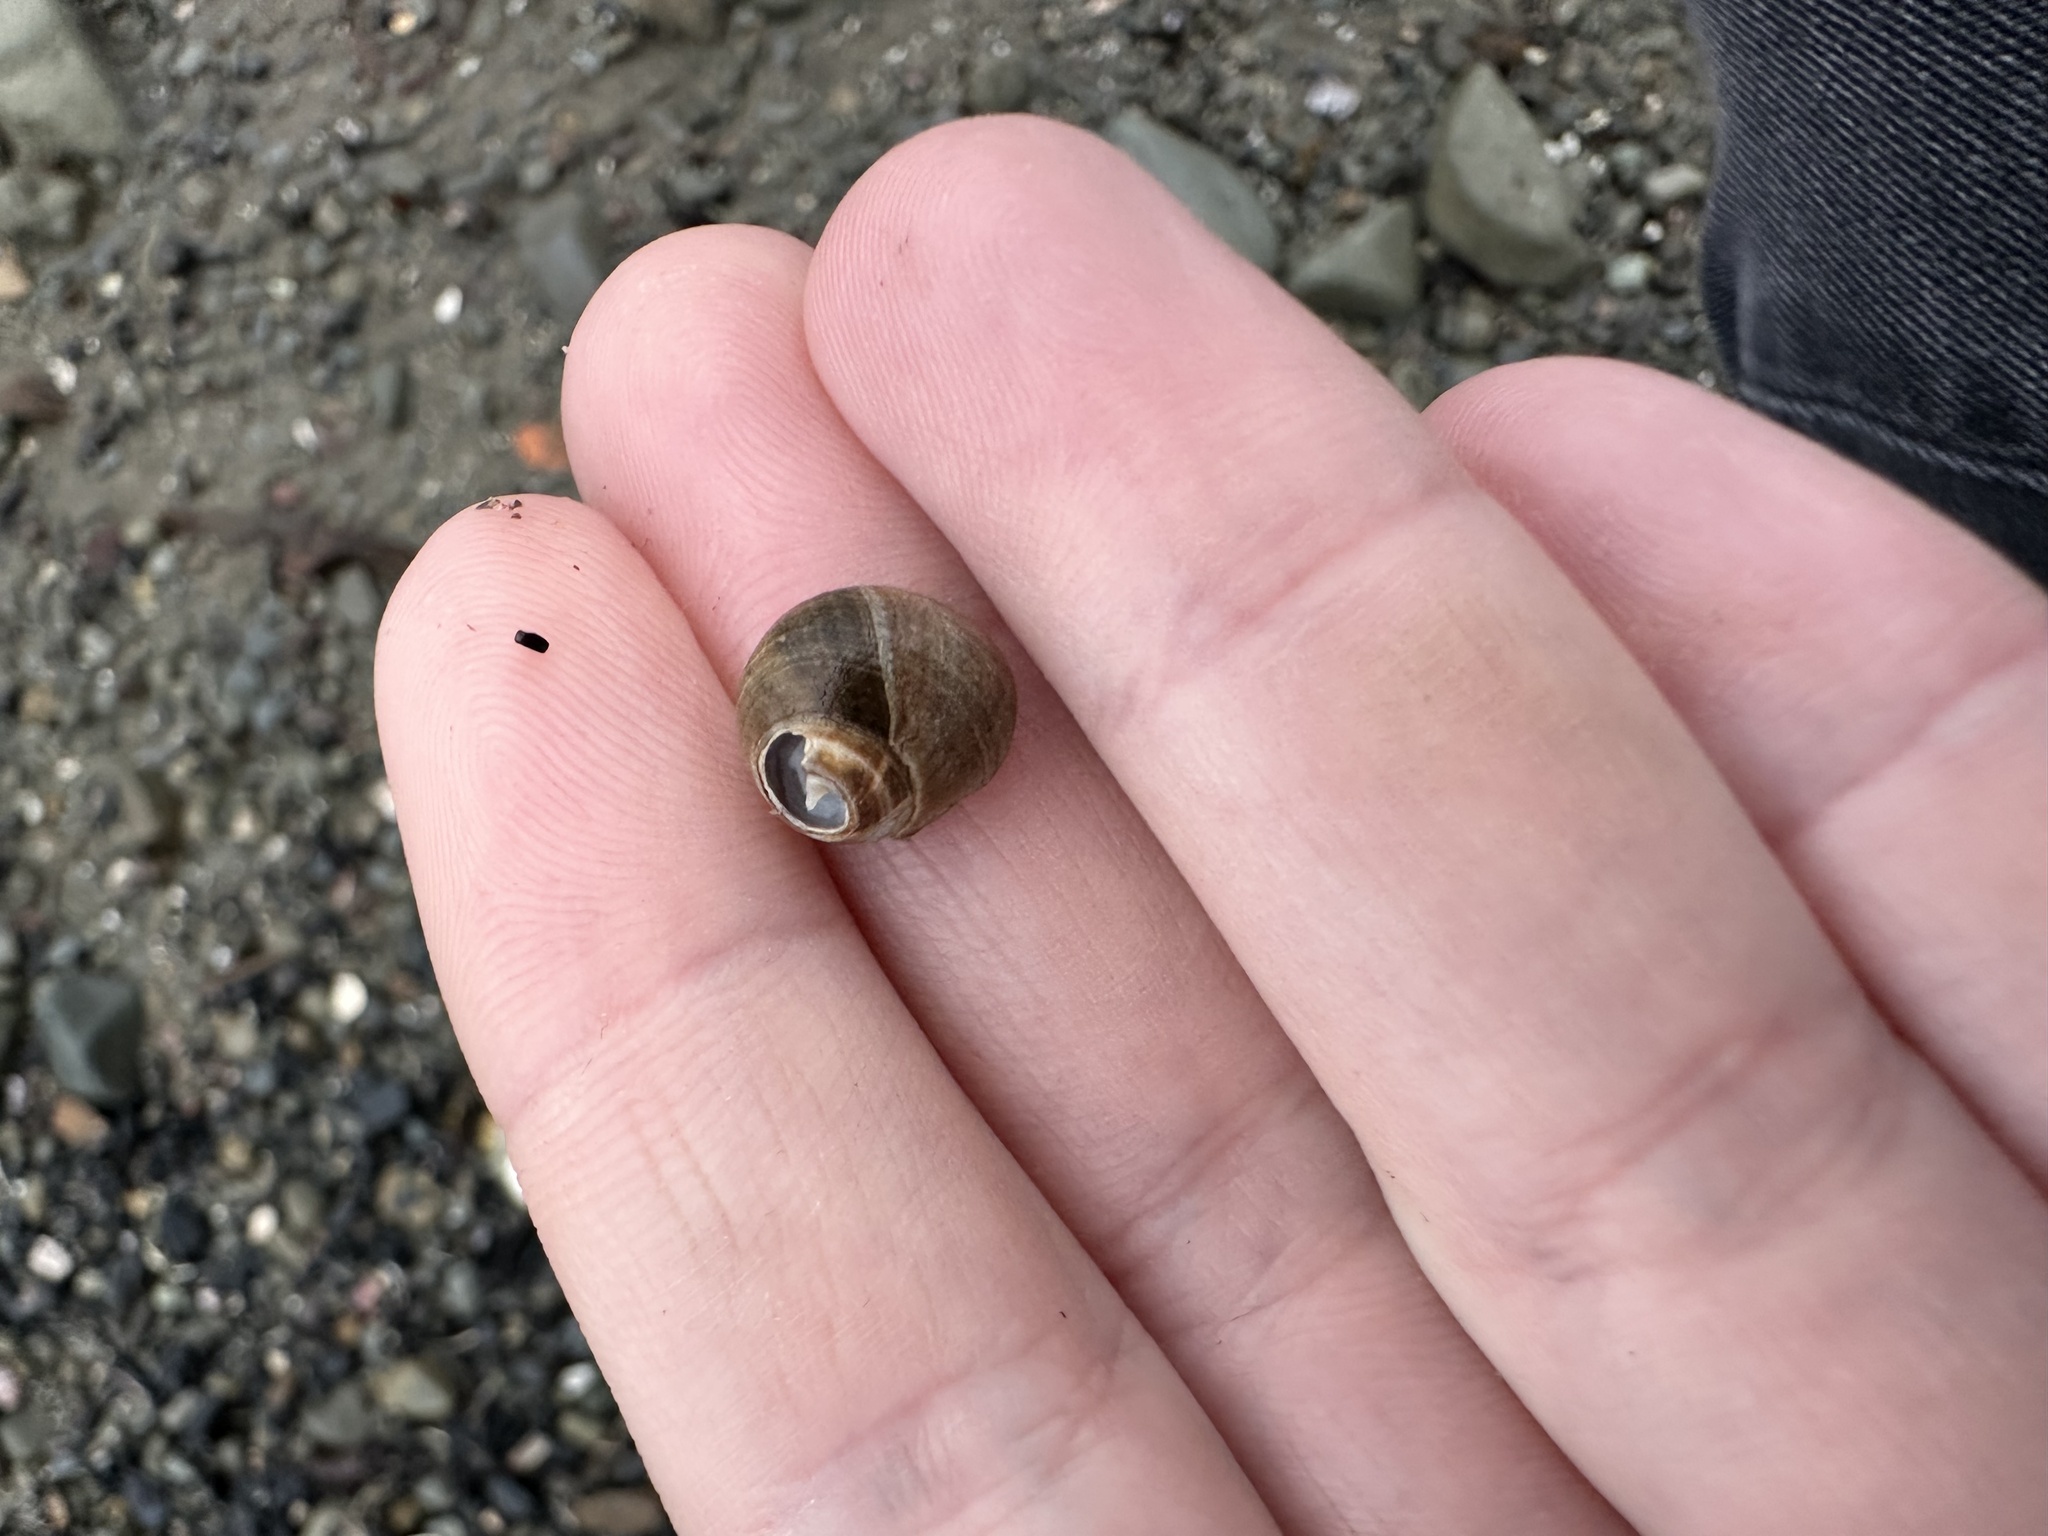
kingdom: Animalia
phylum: Mollusca
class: Gastropoda
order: Littorinimorpha
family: Littorinidae
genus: Littorina
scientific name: Littorina littorea
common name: Common periwinkle
